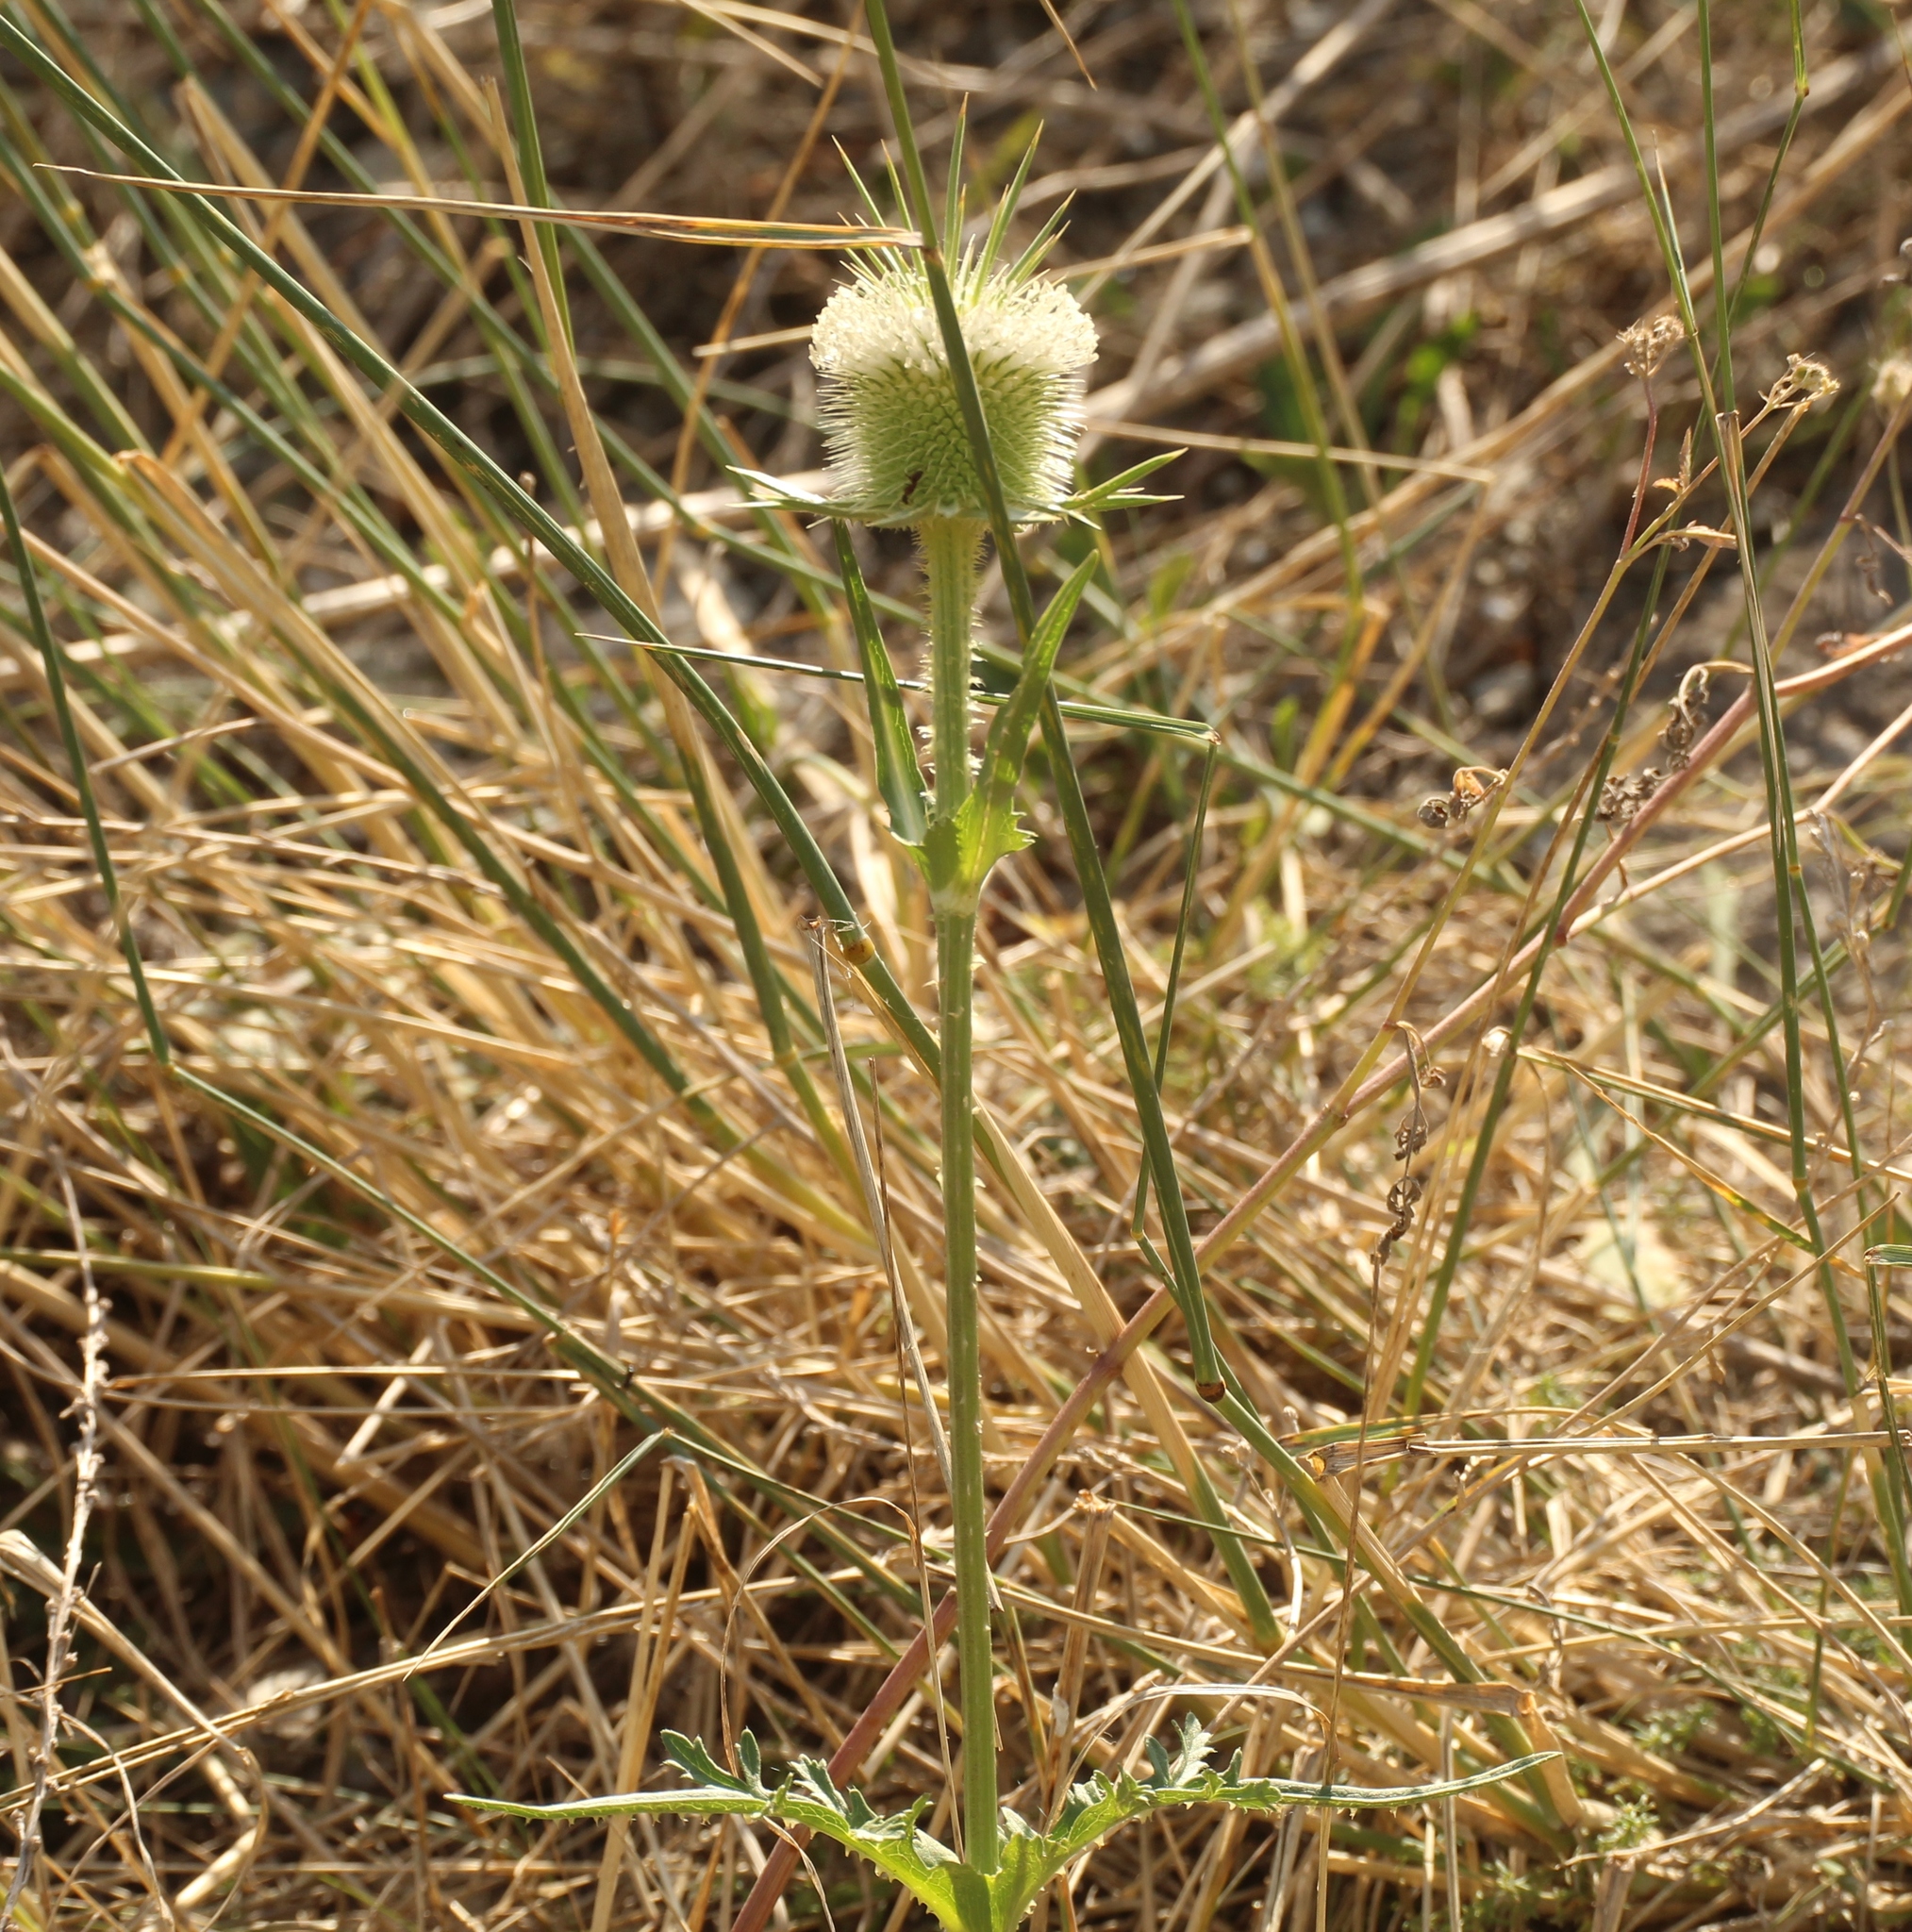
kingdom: Plantae
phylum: Tracheophyta
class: Magnoliopsida
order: Dipsacales
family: Caprifoliaceae
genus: Dipsacus
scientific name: Dipsacus laciniatus
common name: Cut-leaved teasel
